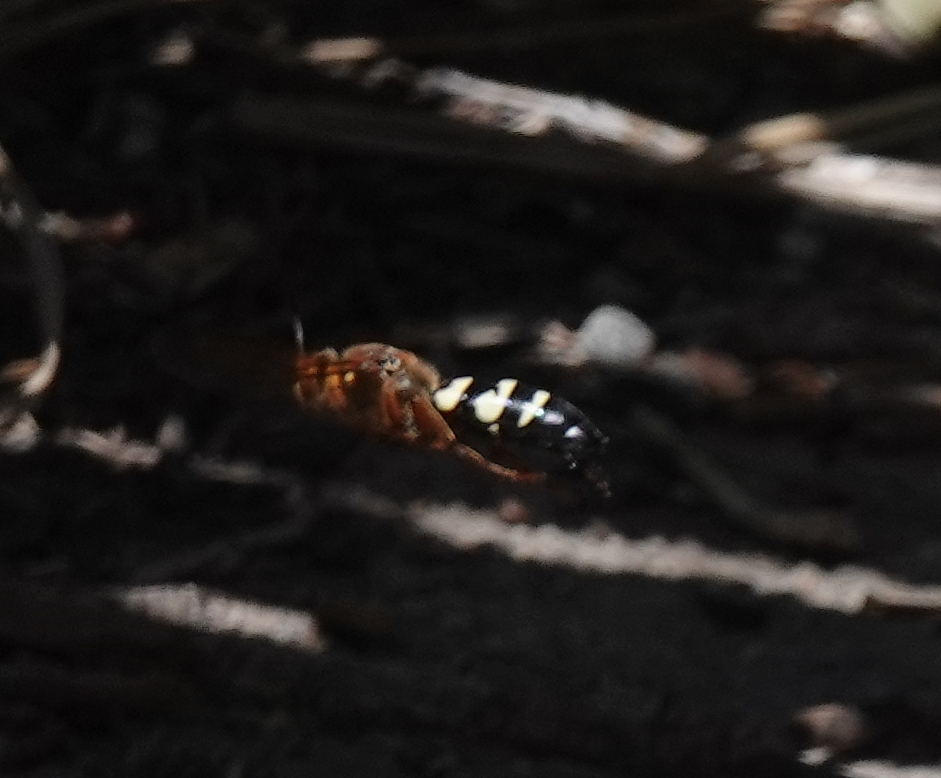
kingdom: Animalia
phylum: Arthropoda
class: Insecta
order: Hymenoptera
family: Crabronidae
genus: Sphecius
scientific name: Sphecius speciosus
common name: Cicada killer
